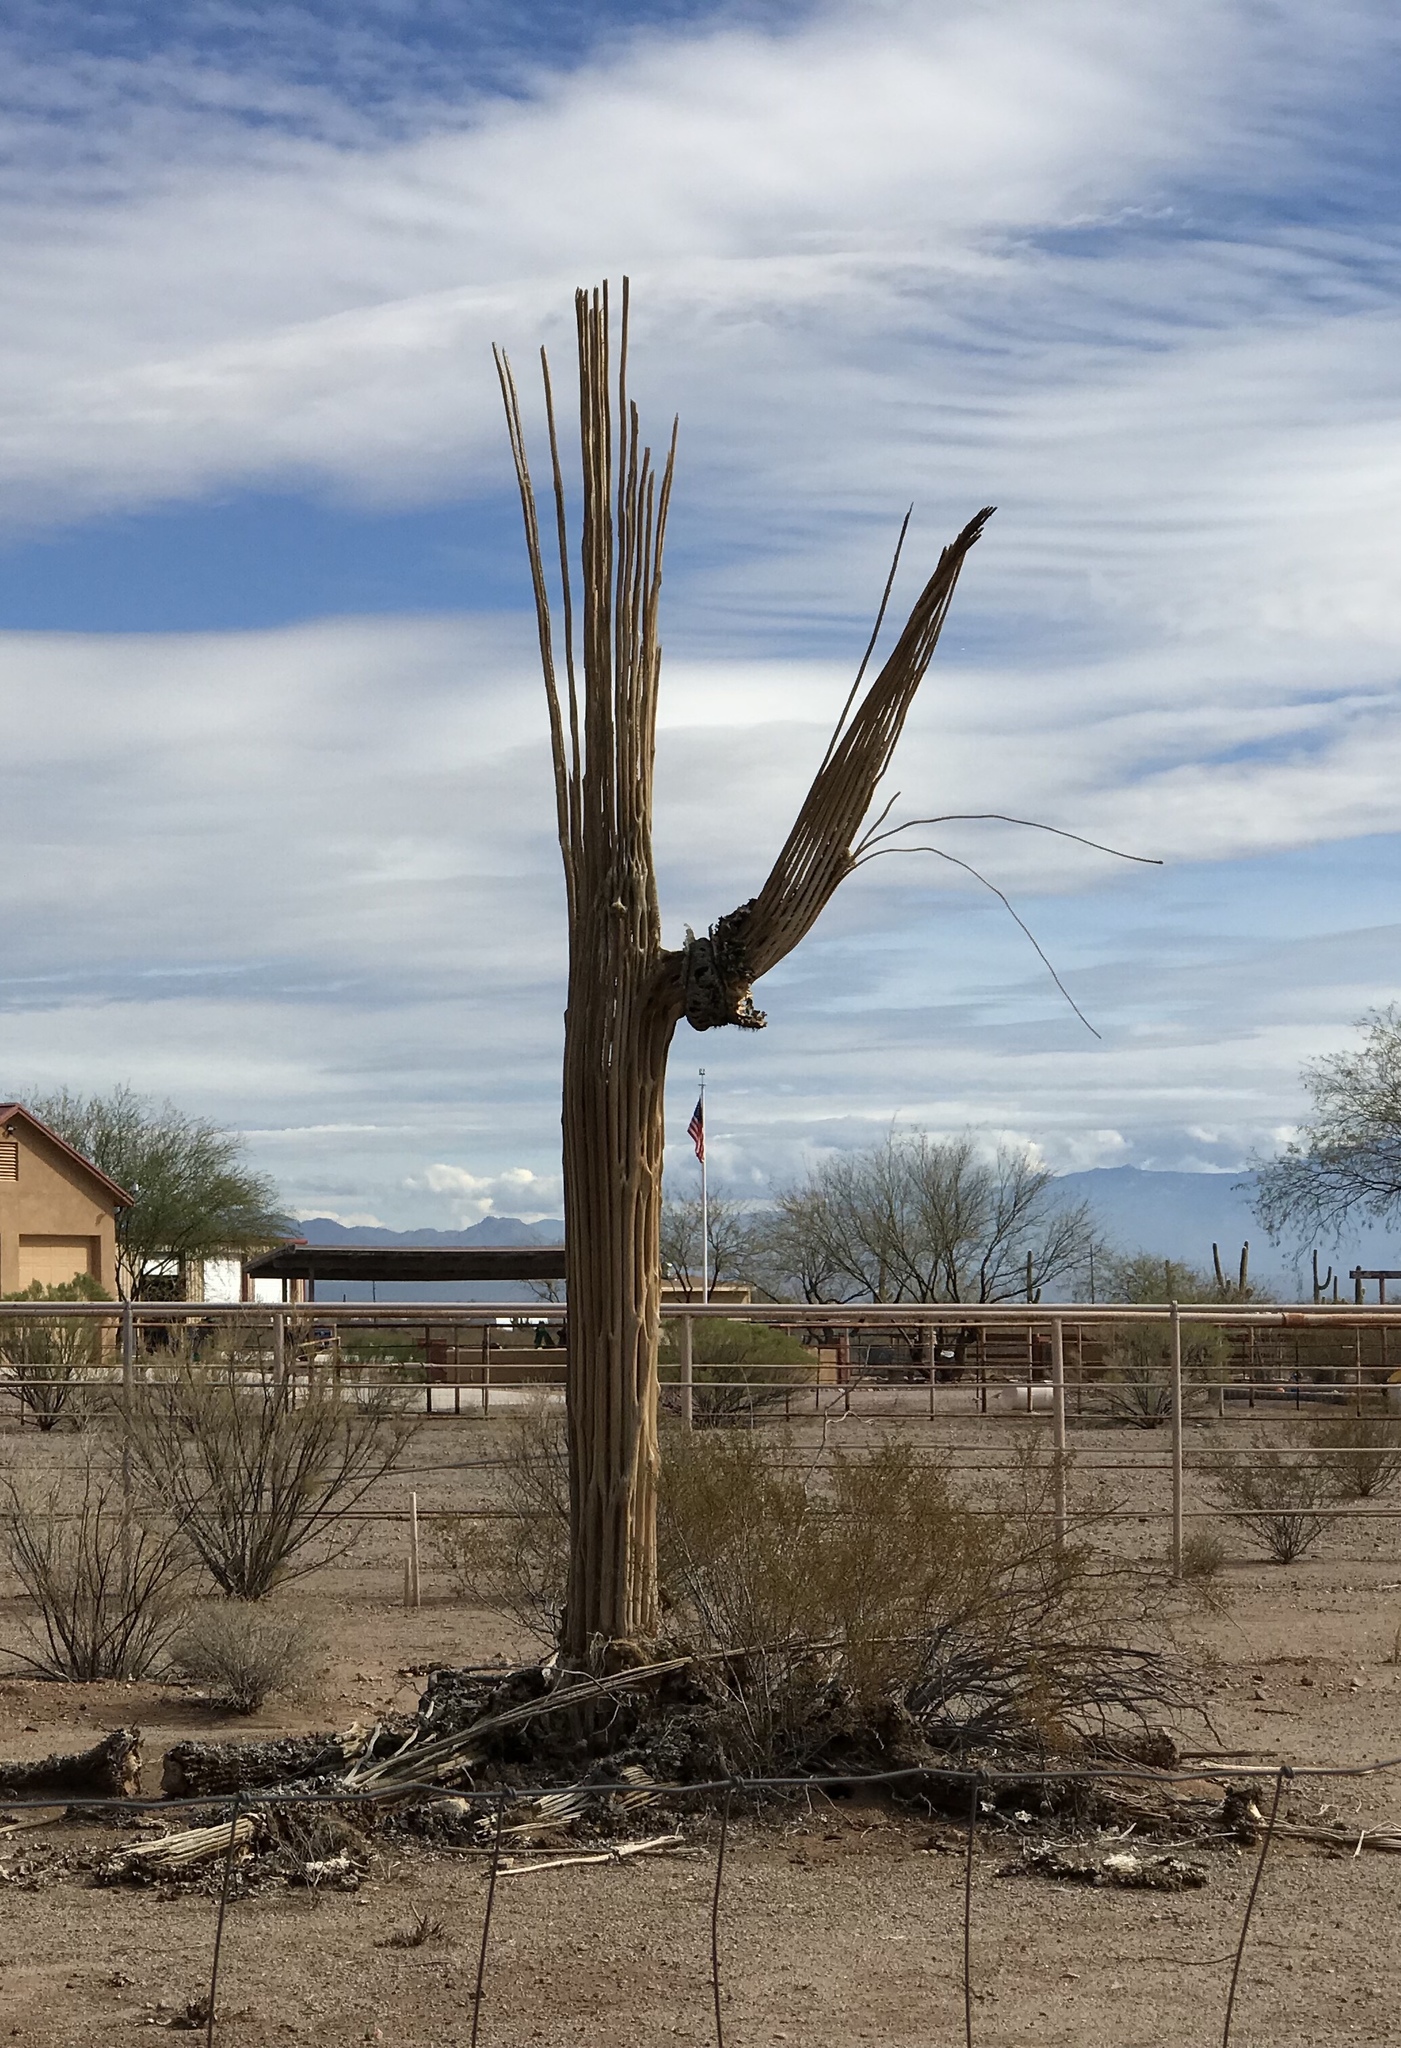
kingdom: Plantae
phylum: Tracheophyta
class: Magnoliopsida
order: Caryophyllales
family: Cactaceae
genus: Carnegiea
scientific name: Carnegiea gigantea
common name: Saguaro
